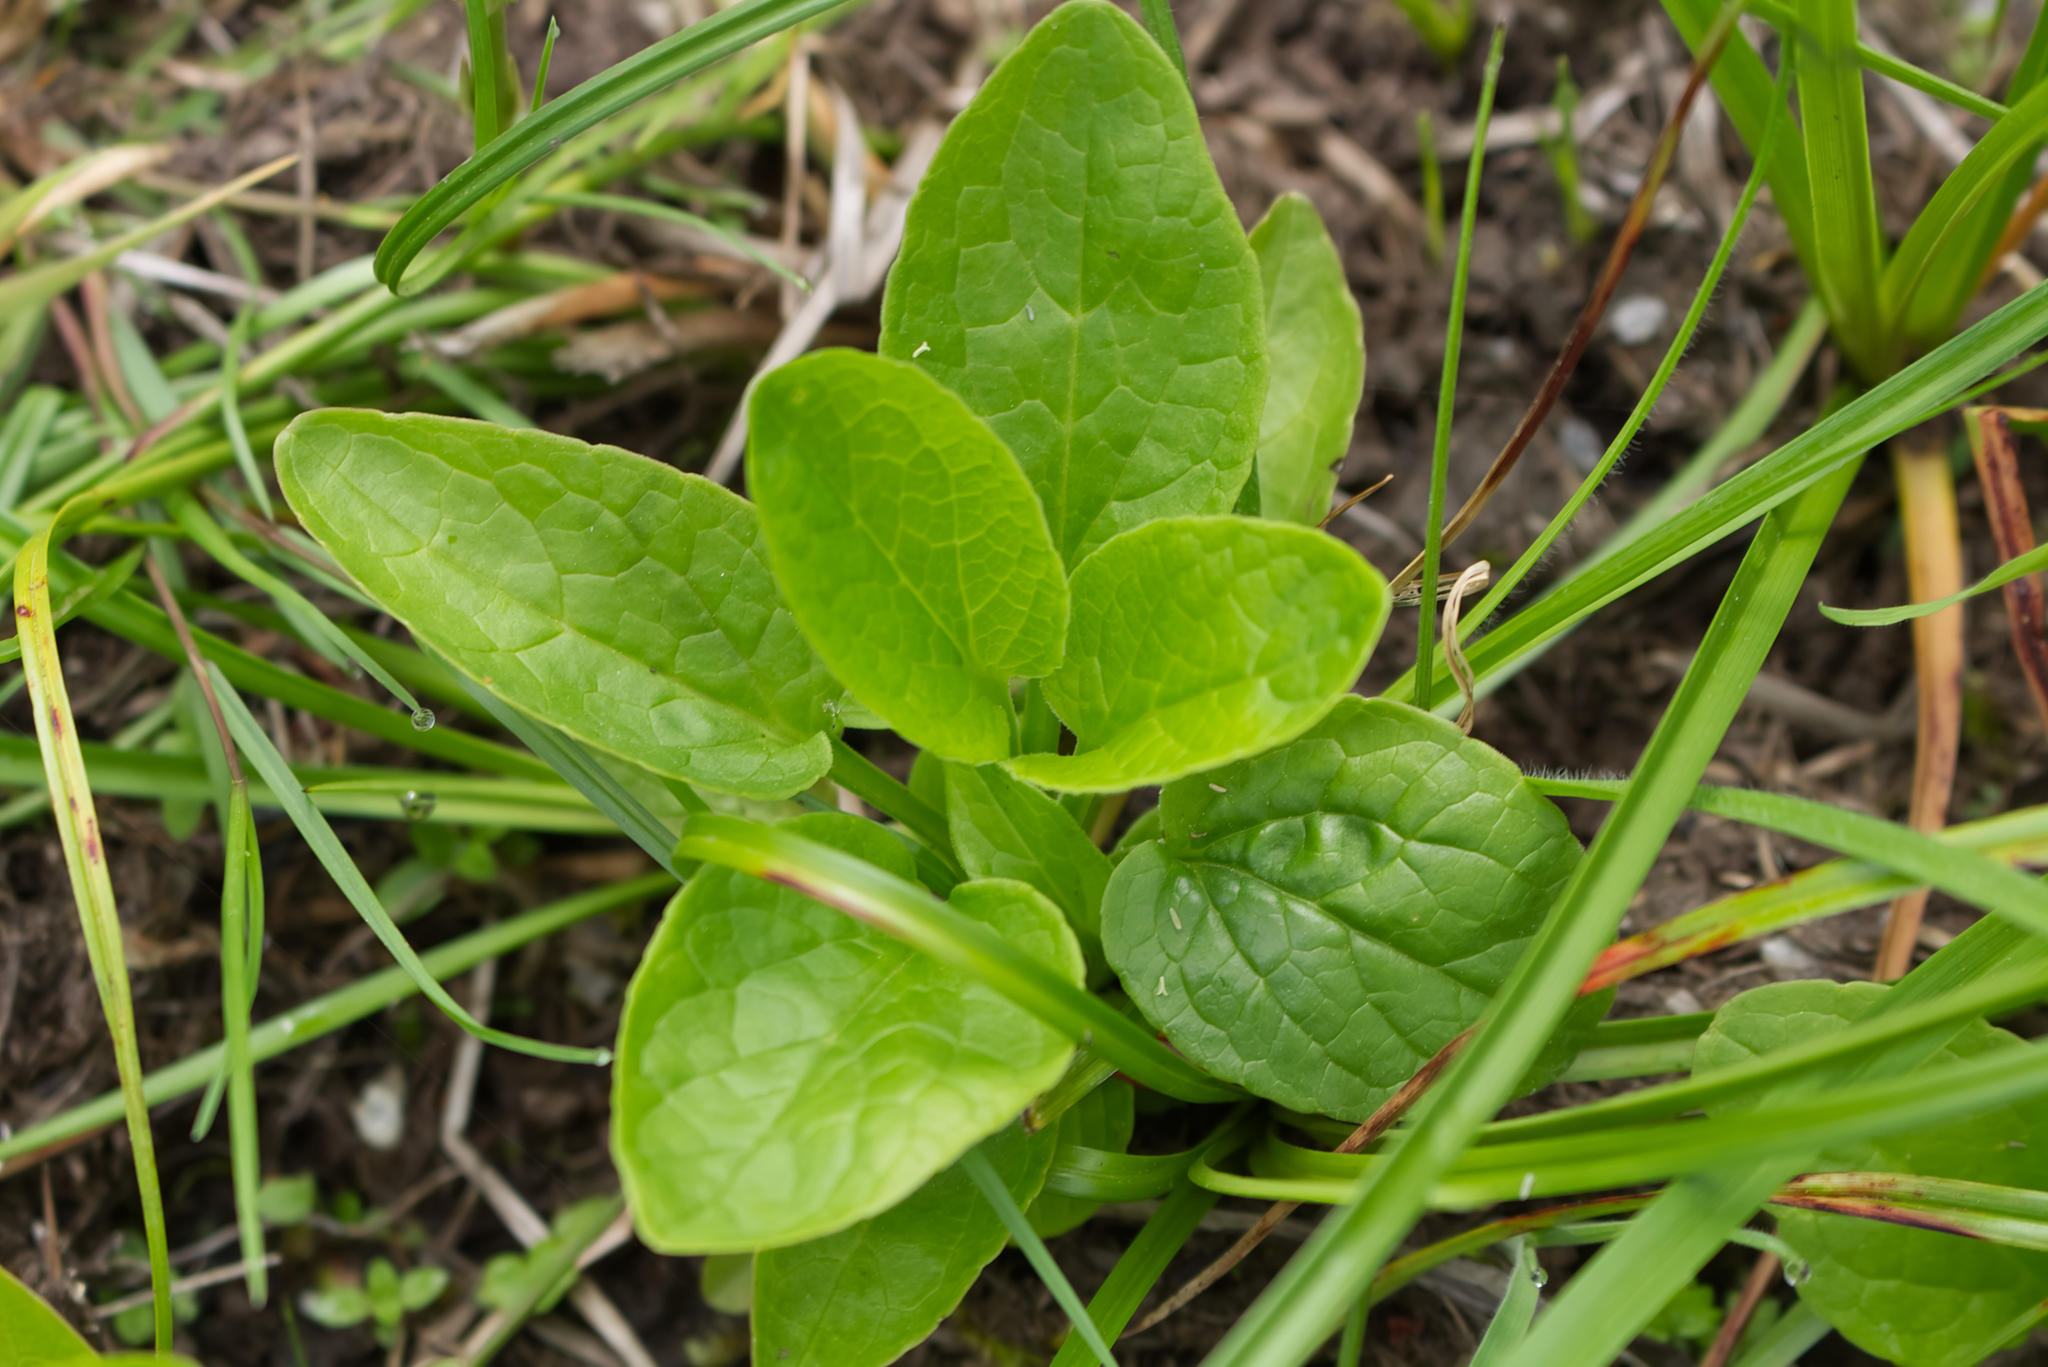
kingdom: Plantae
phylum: Tracheophyta
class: Magnoliopsida
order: Dipsacales
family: Caprifoliaceae
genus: Valeriana
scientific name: Valeriana dioica
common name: Marsh valerian
